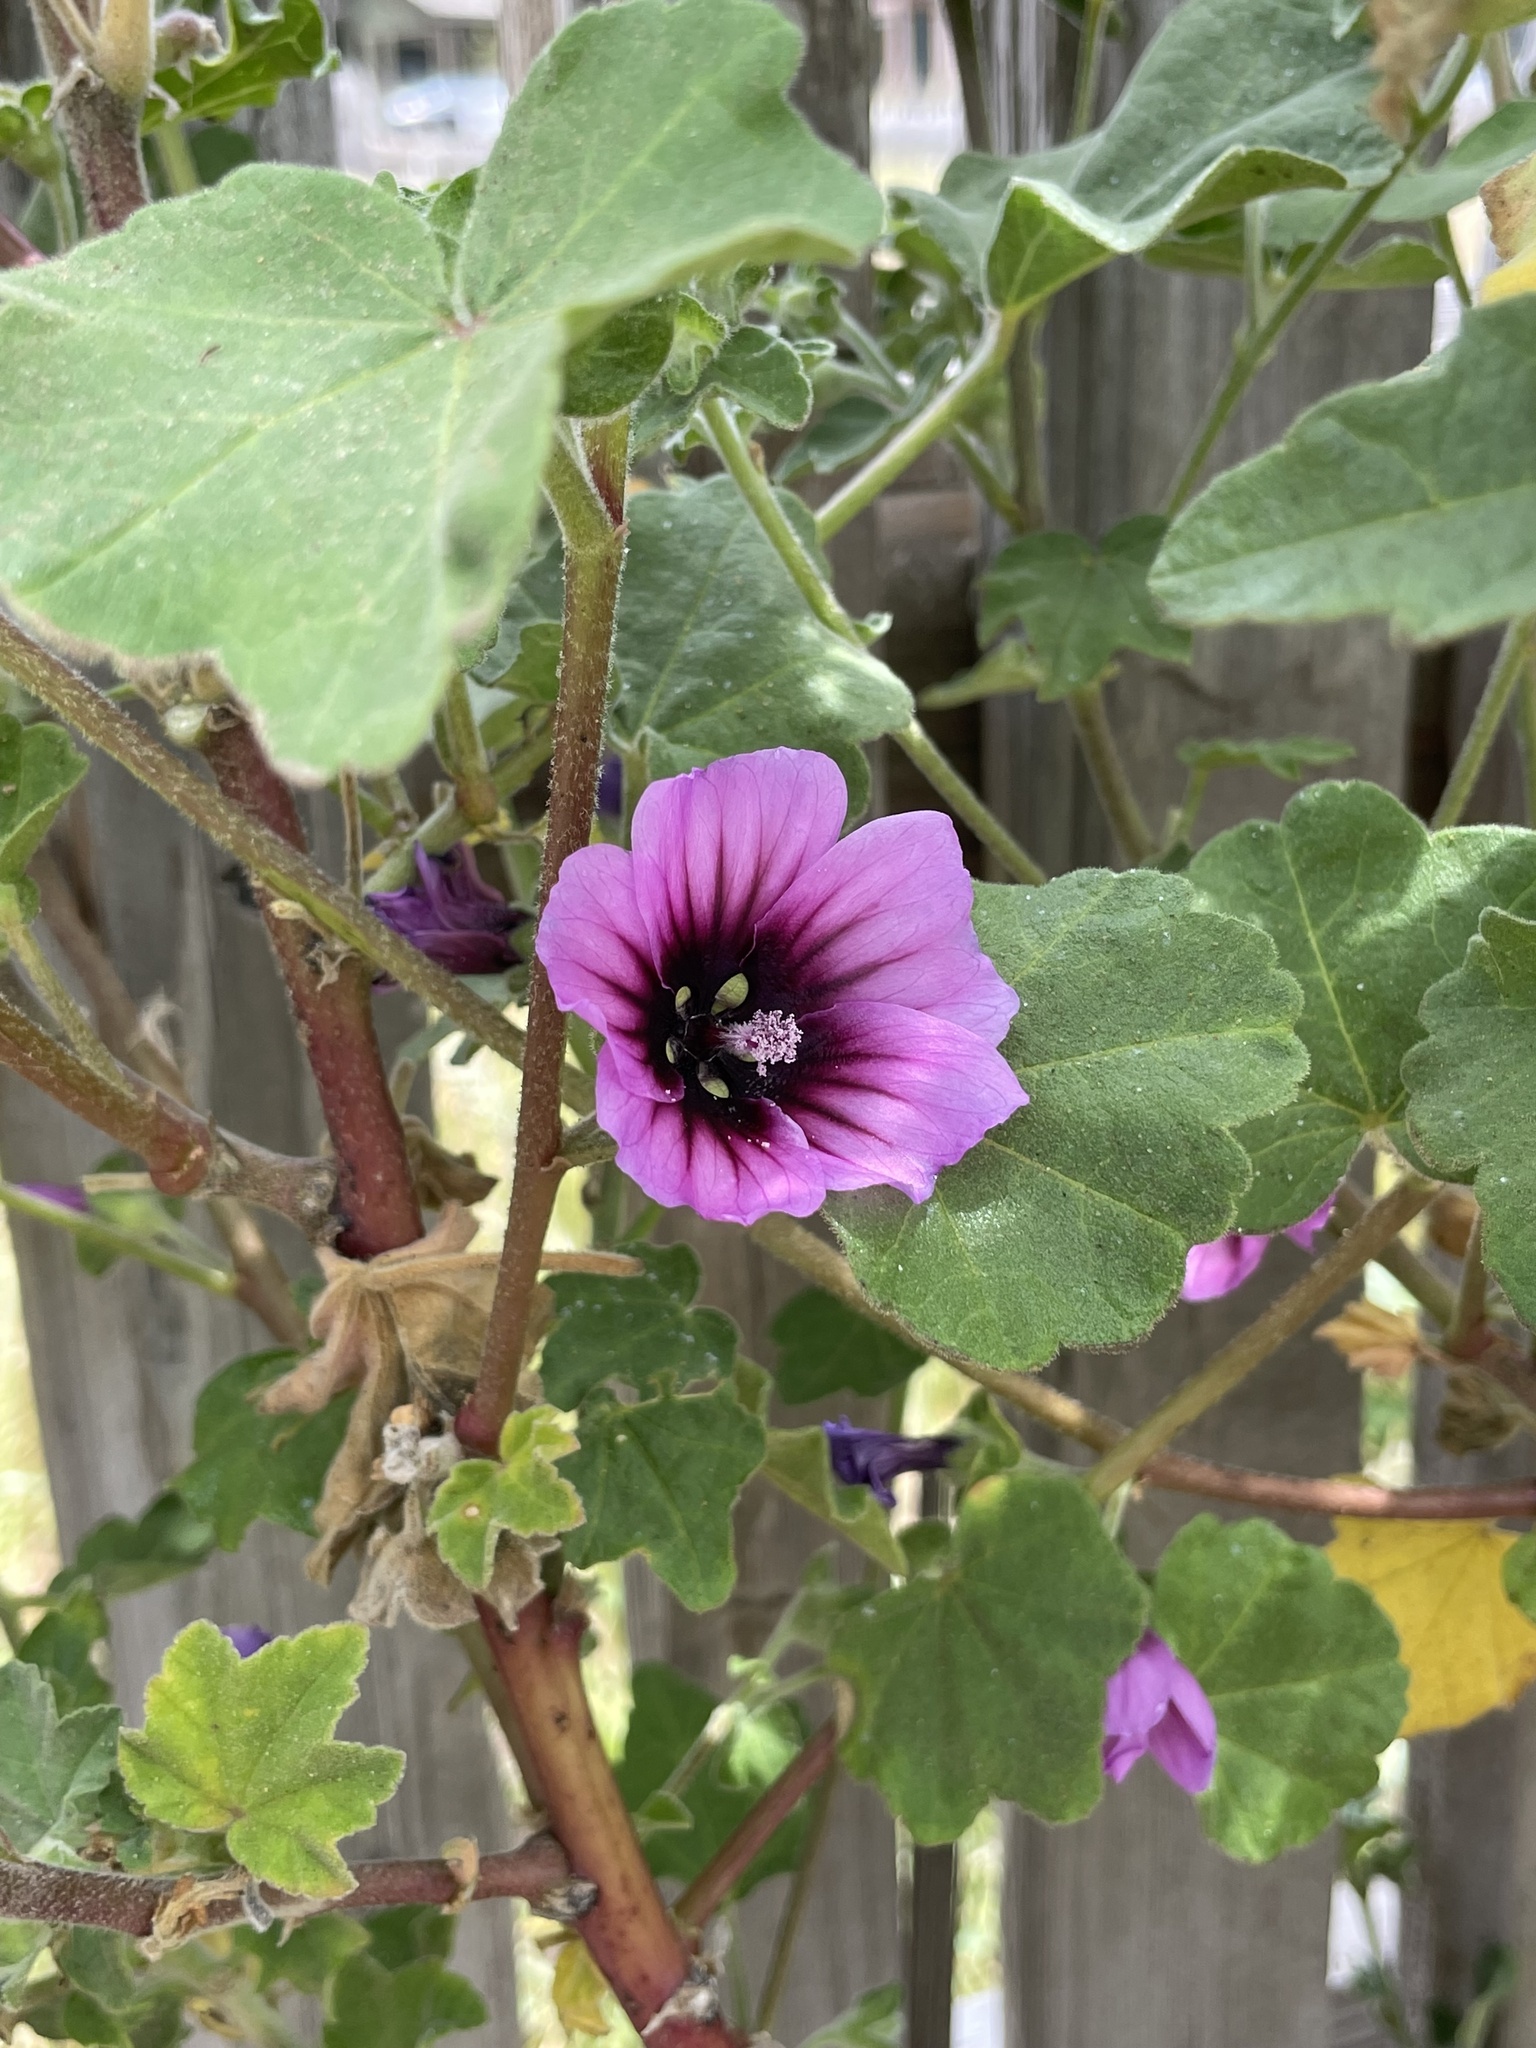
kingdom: Plantae
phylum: Tracheophyta
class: Magnoliopsida
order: Malvales
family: Malvaceae
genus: Malva
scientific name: Malva arborea
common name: Tree mallow
